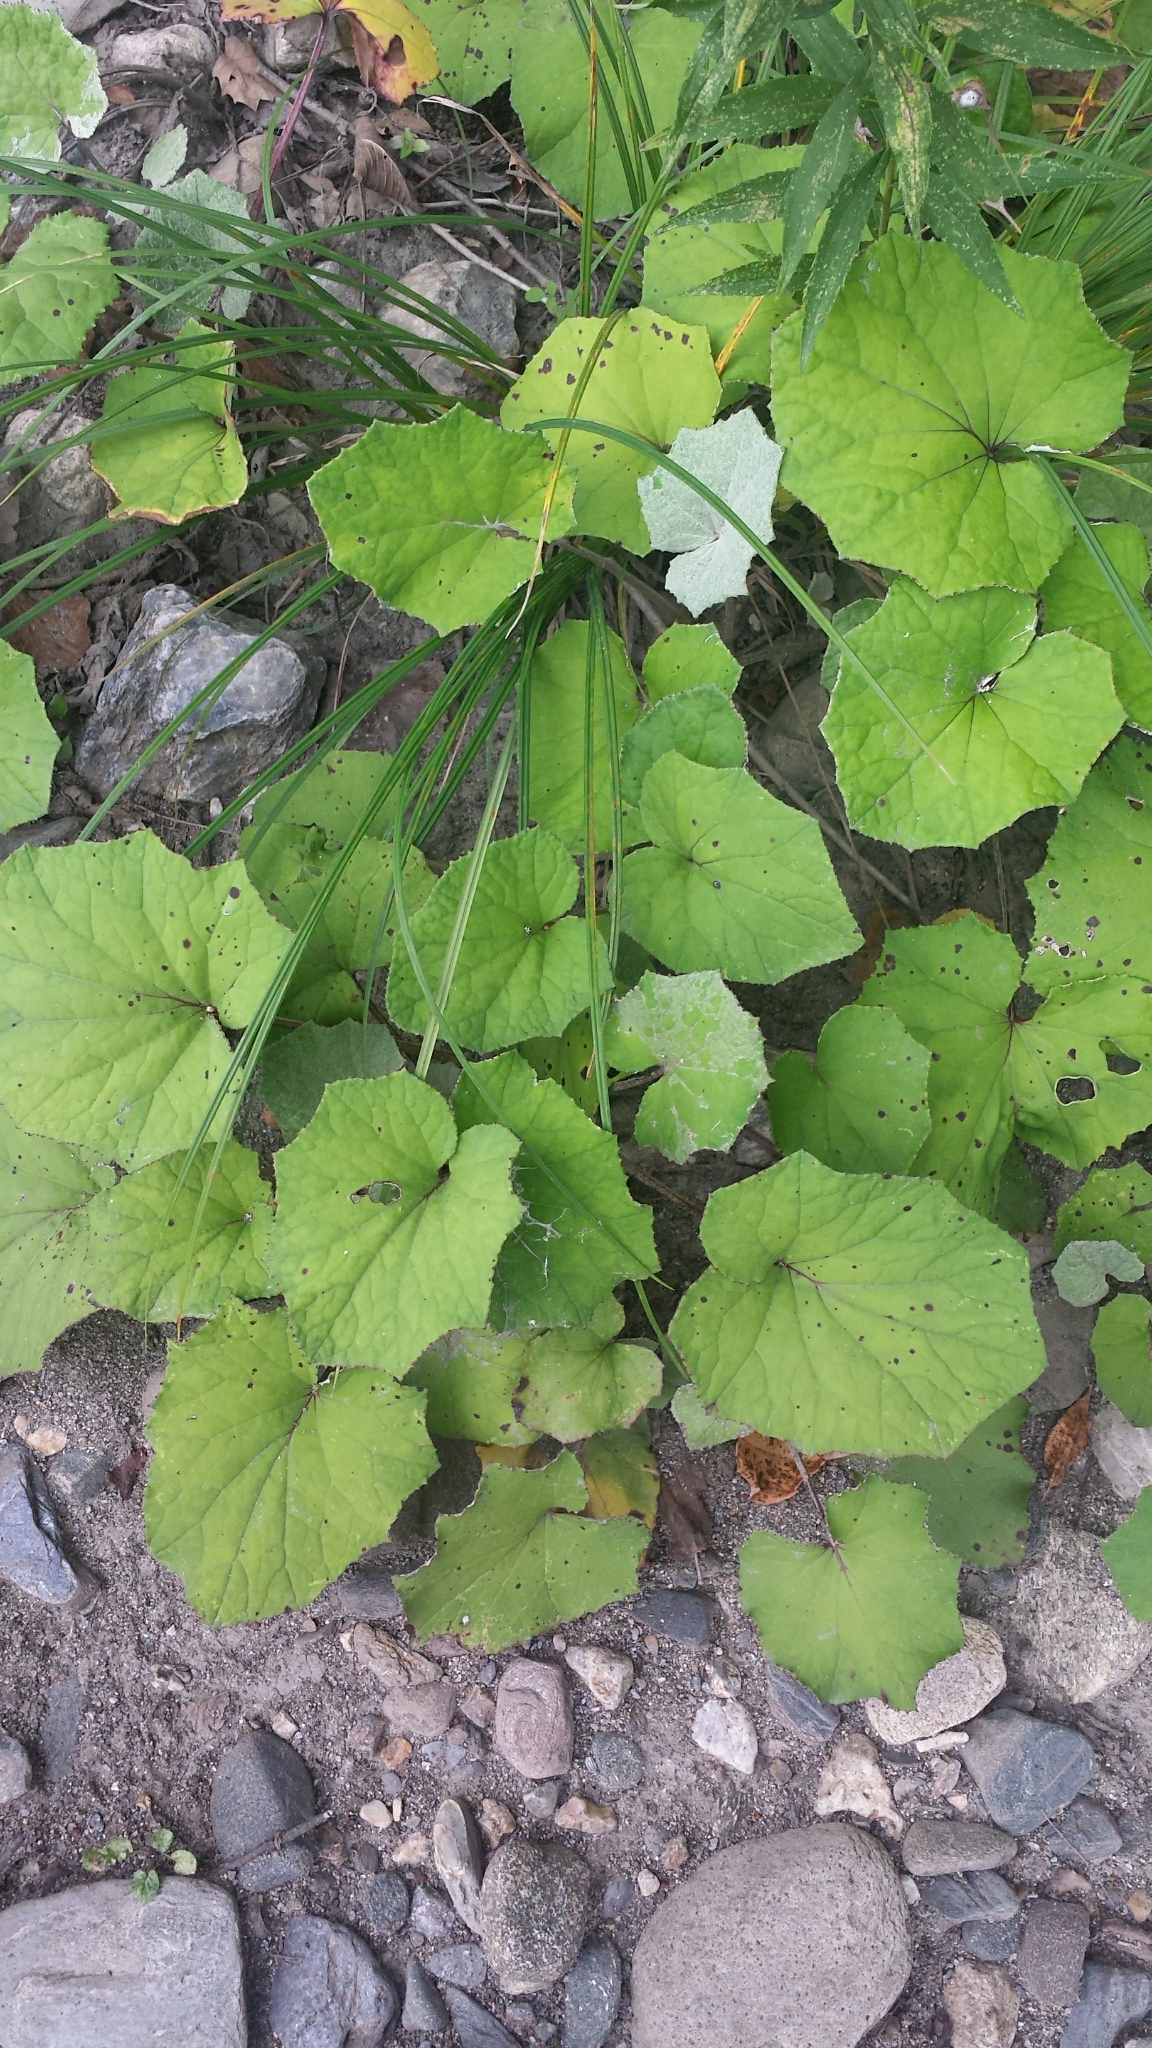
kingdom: Plantae
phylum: Tracheophyta
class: Magnoliopsida
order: Asterales
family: Asteraceae
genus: Tussilago
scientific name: Tussilago farfara
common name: Coltsfoot
